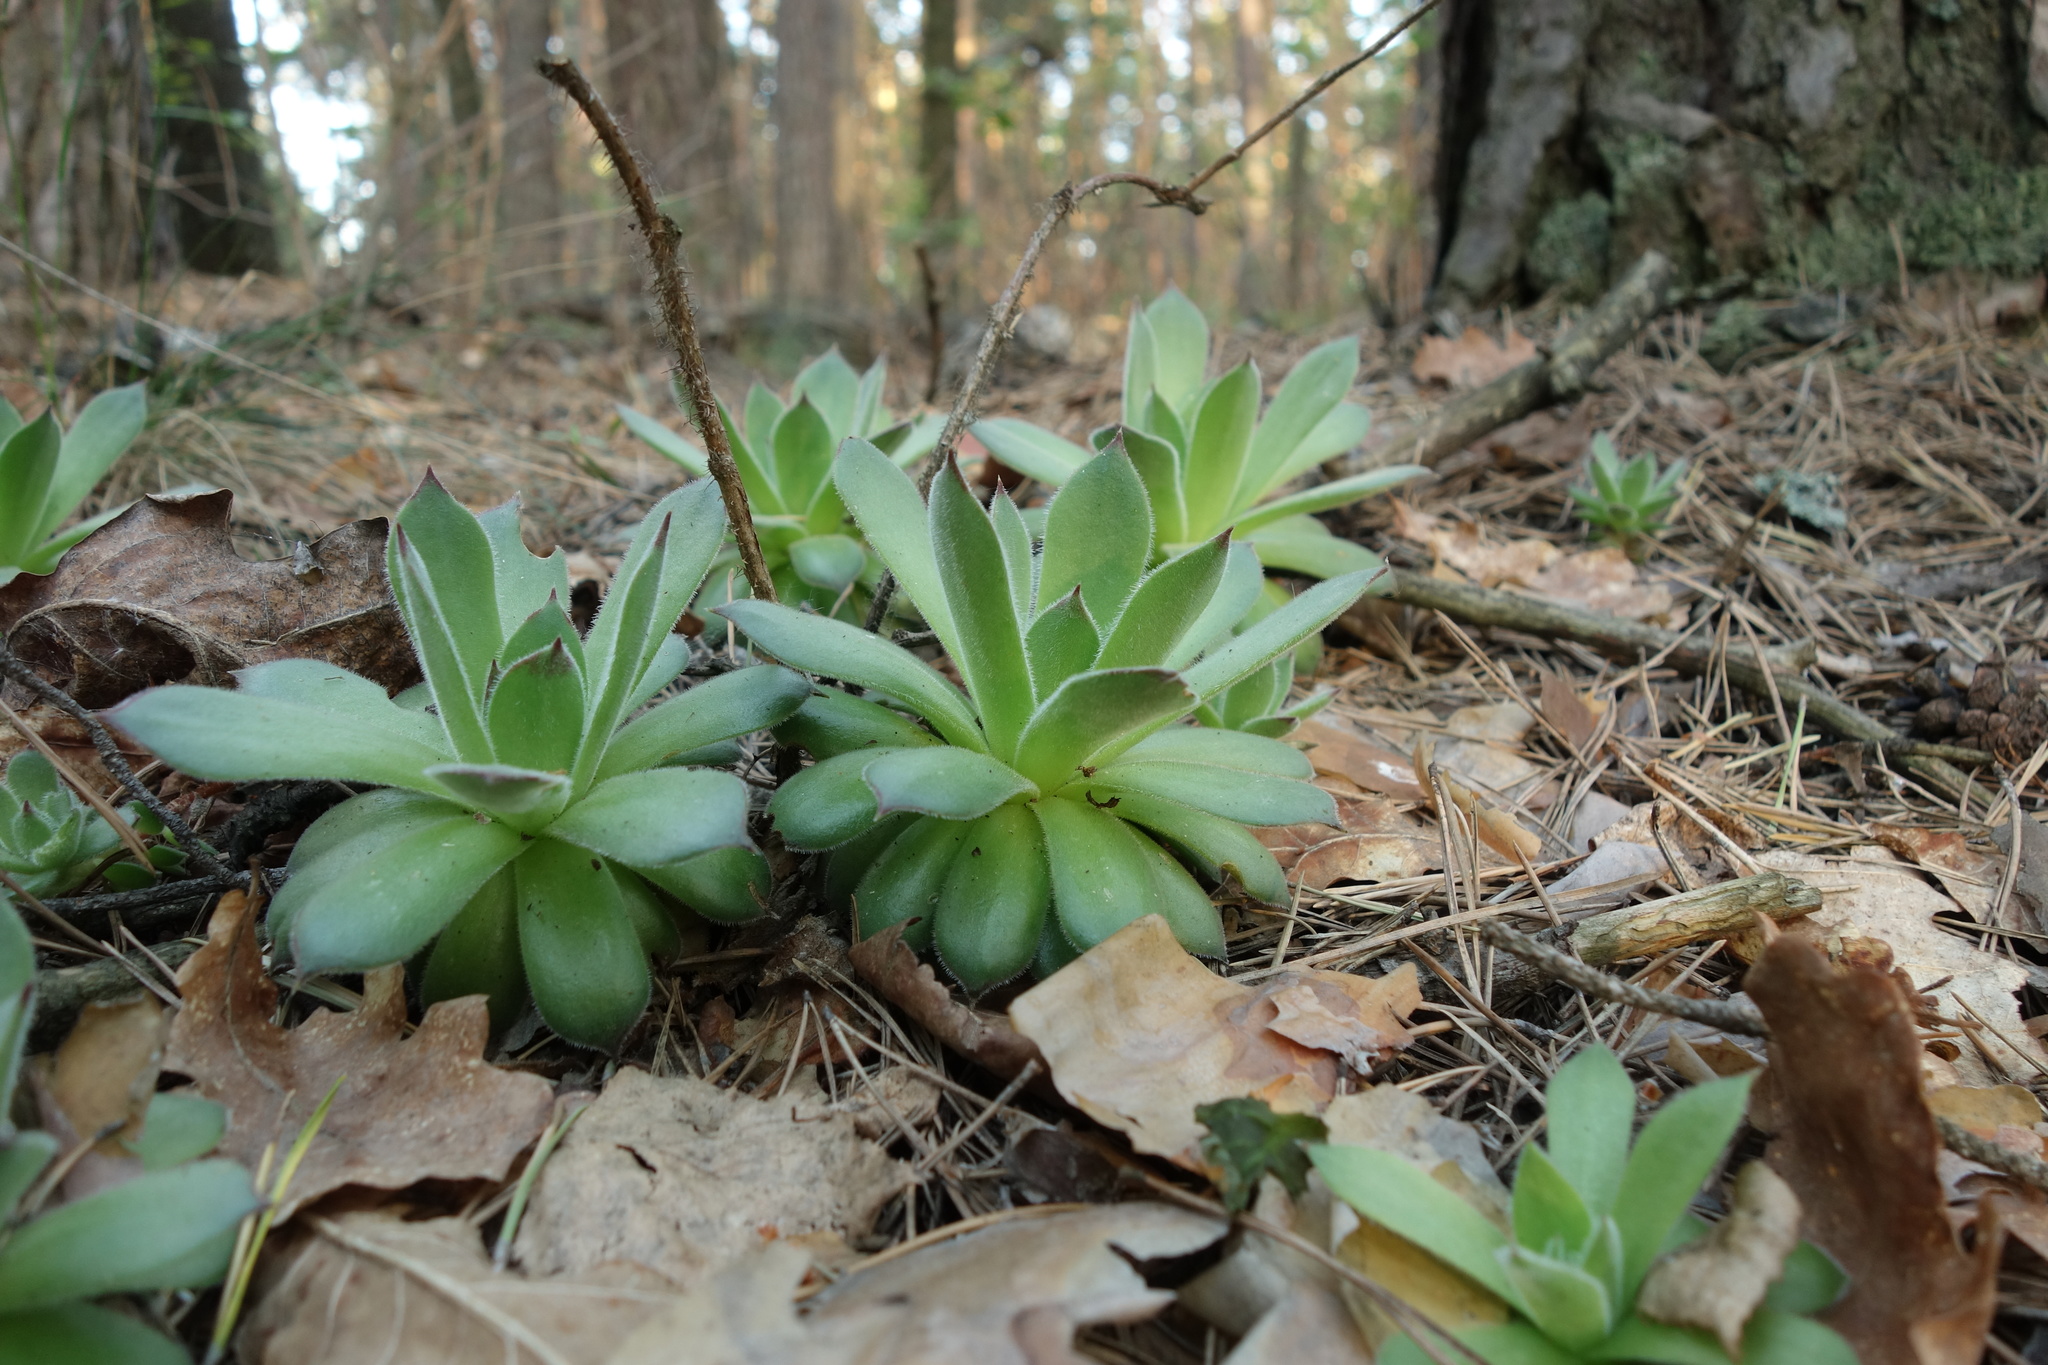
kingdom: Plantae
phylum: Tracheophyta
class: Magnoliopsida
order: Saxifragales
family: Crassulaceae
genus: Sempervivum
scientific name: Sempervivum ruthenicum
